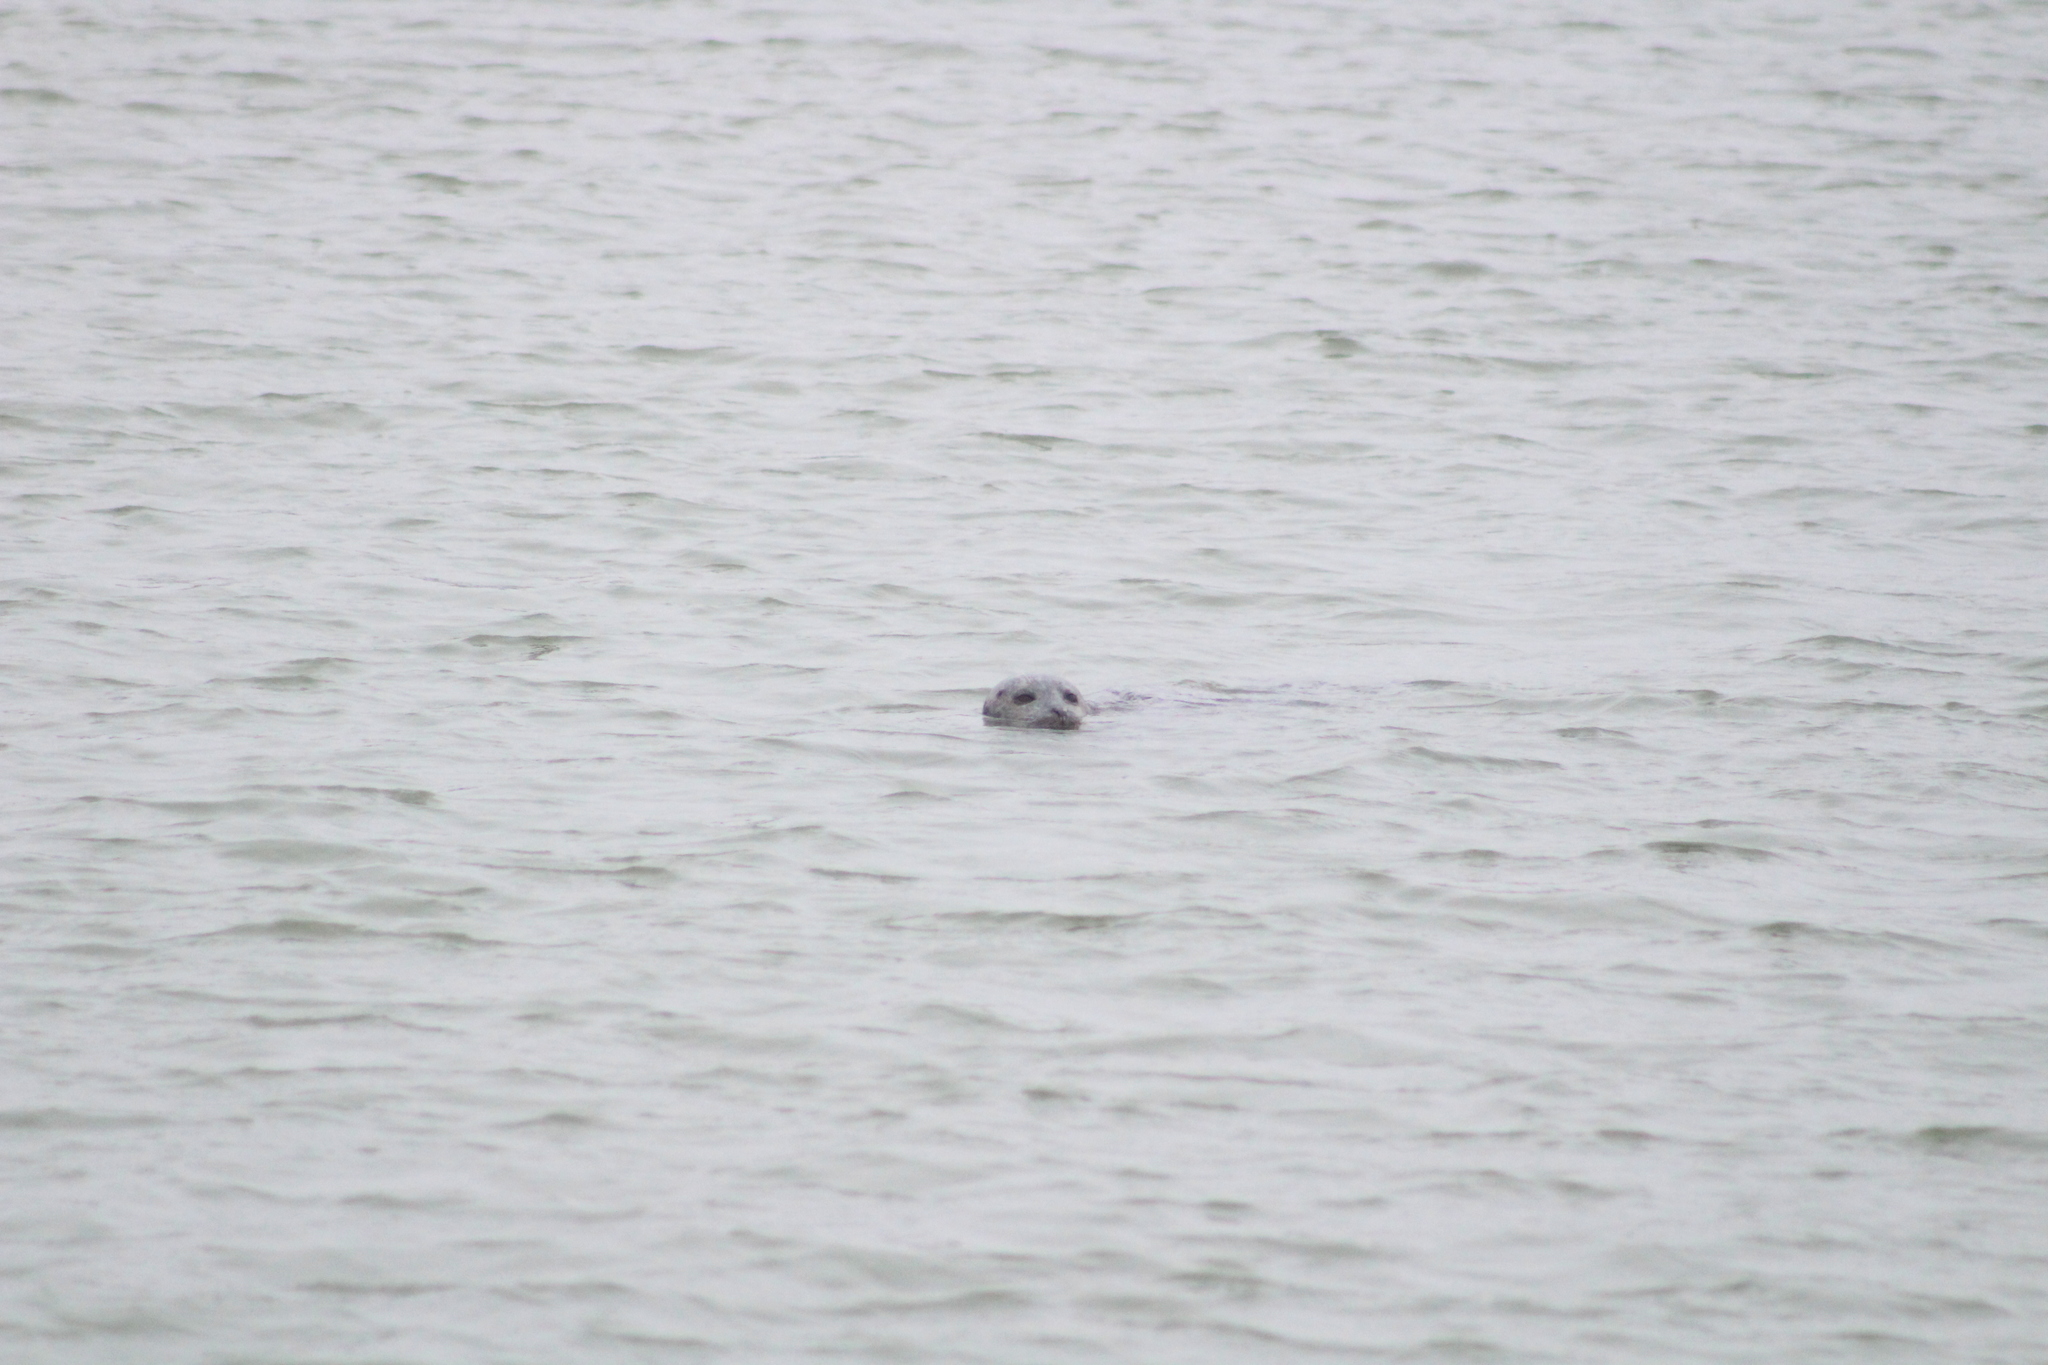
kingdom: Animalia
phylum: Chordata
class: Mammalia
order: Carnivora
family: Phocidae
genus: Phoca
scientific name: Phoca vitulina
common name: Harbor seal
